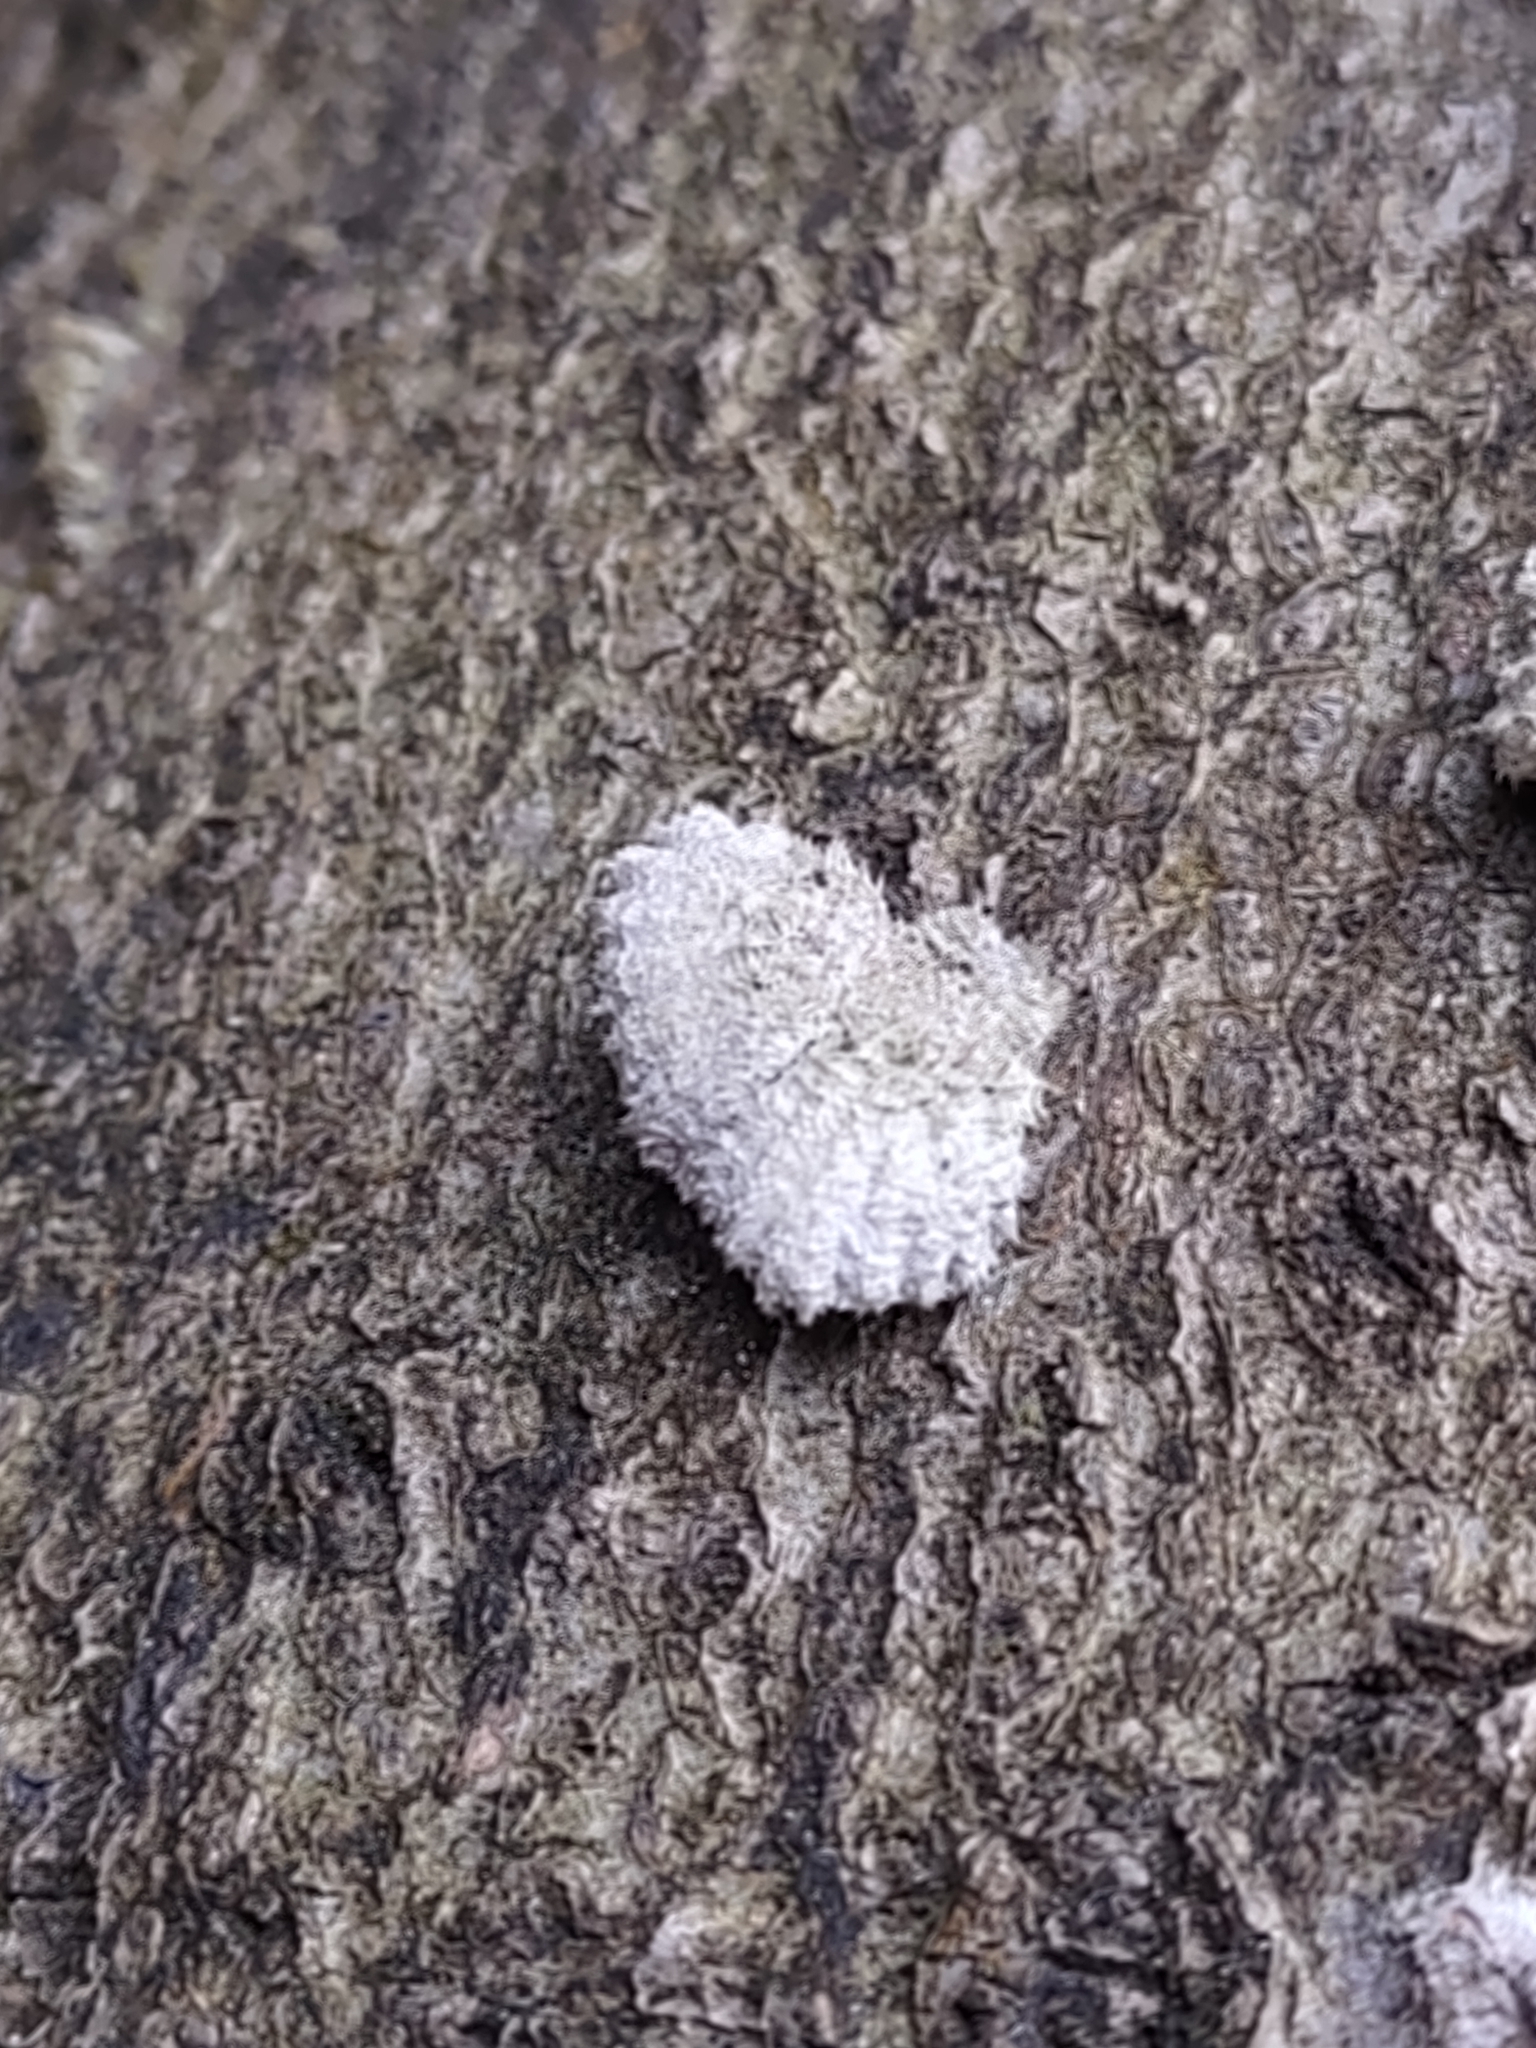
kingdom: Fungi
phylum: Basidiomycota
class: Agaricomycetes
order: Agaricales
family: Schizophyllaceae
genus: Schizophyllum
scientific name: Schizophyllum commune
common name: Common porecrust
